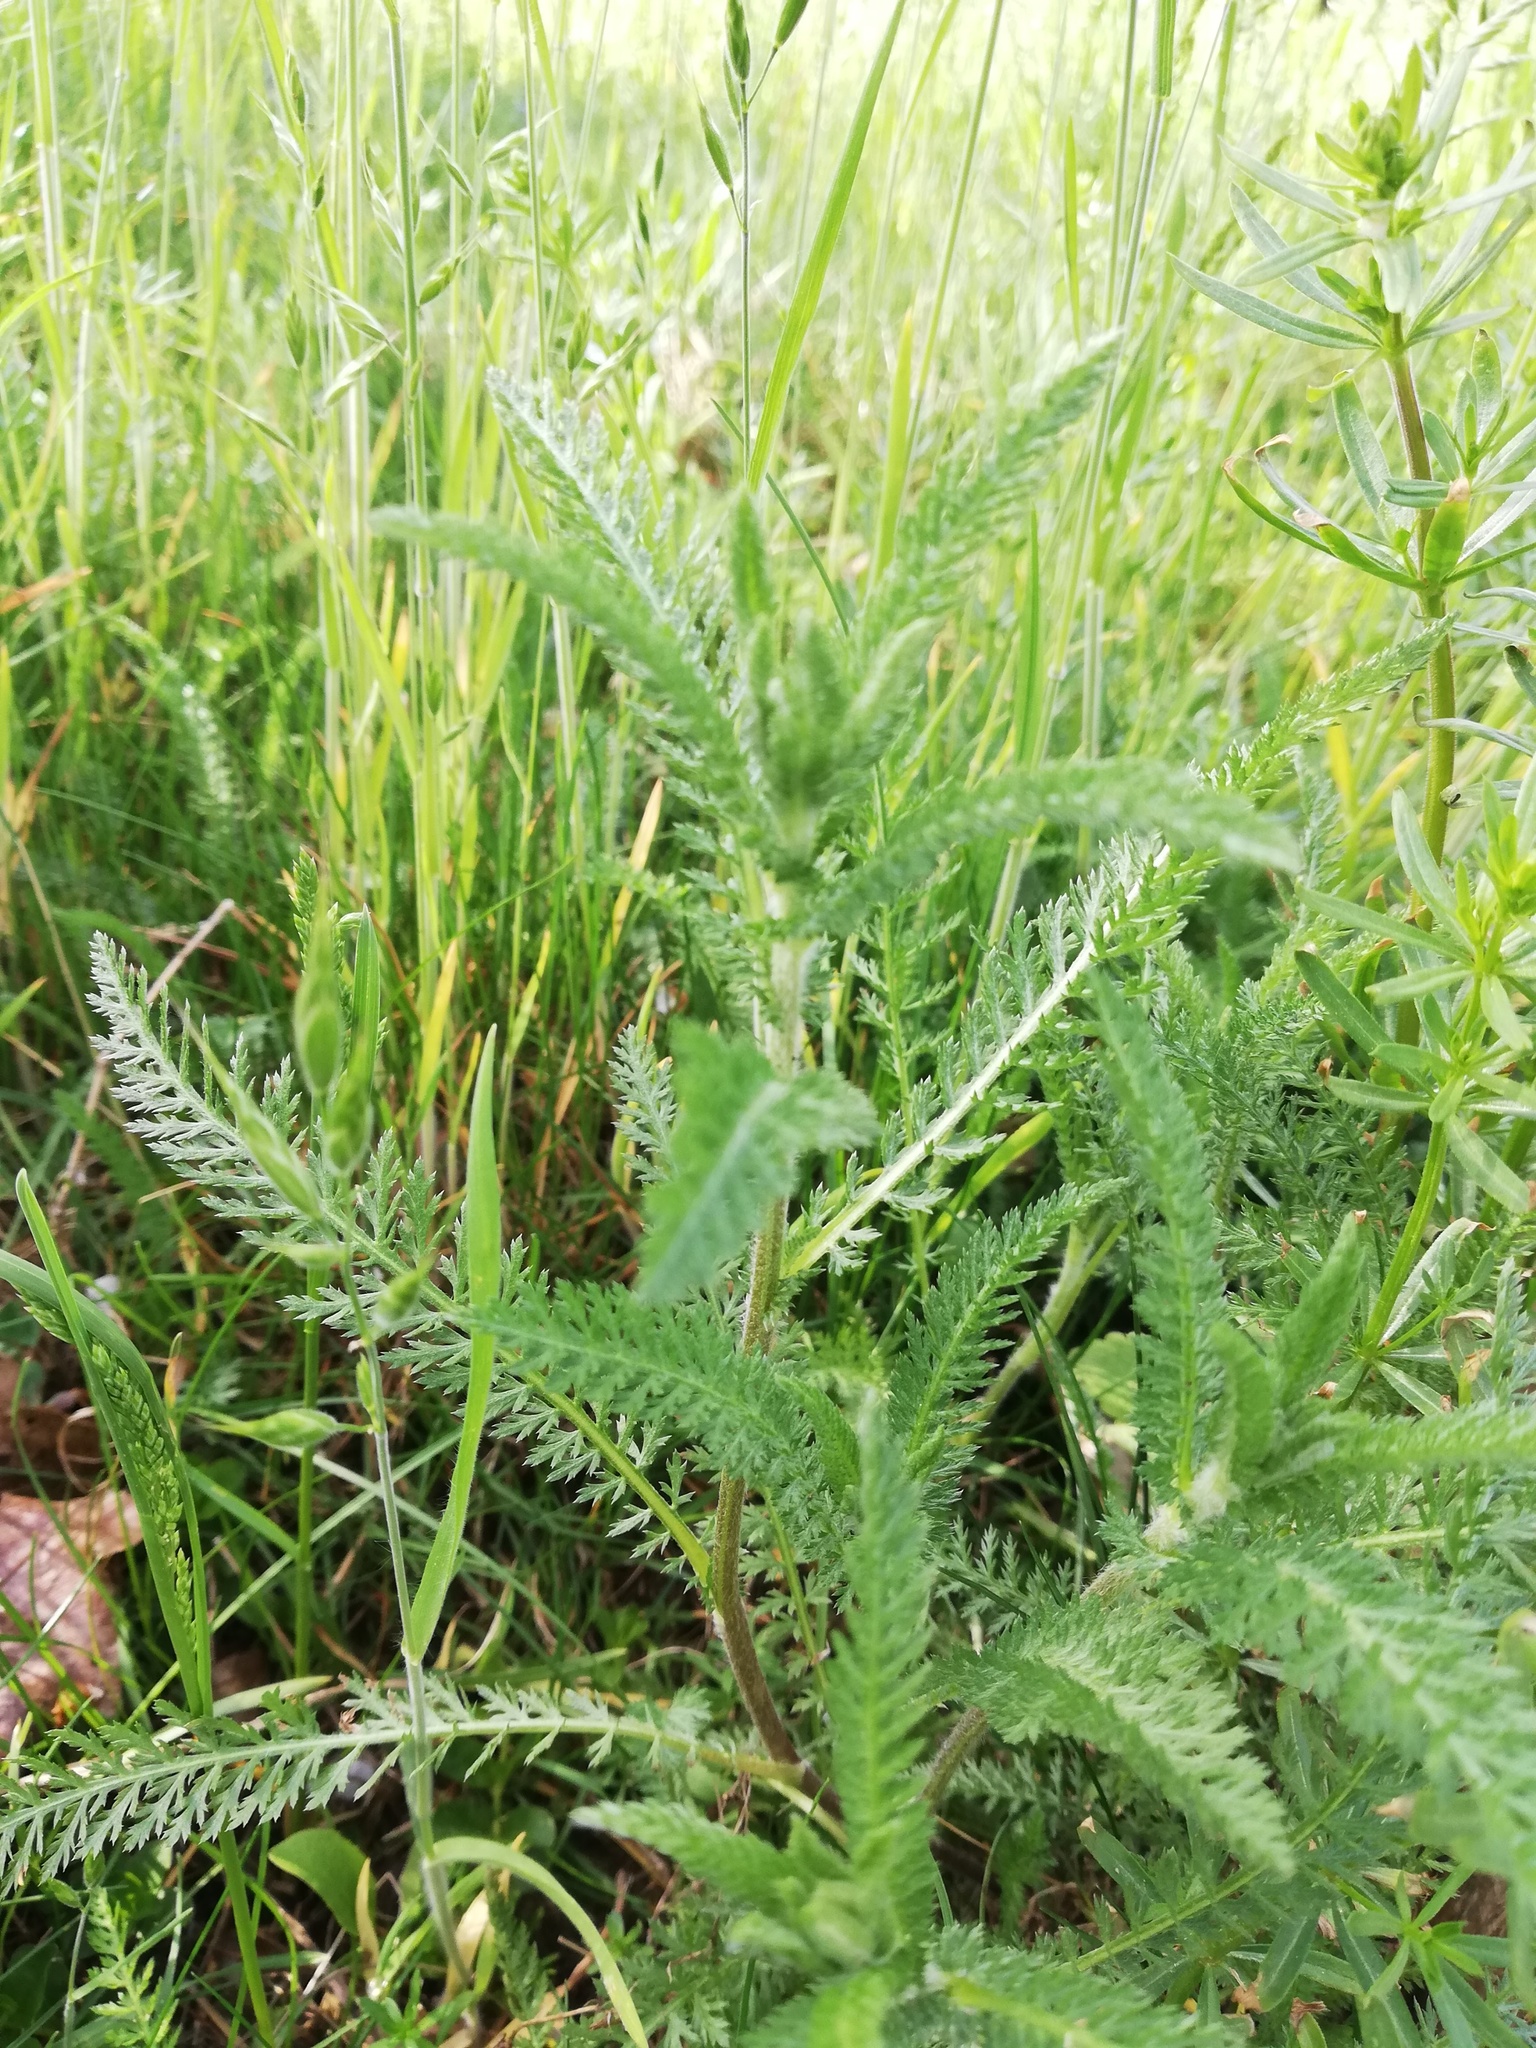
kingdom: Plantae
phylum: Tracheophyta
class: Magnoliopsida
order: Asterales
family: Asteraceae
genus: Achillea
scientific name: Achillea
